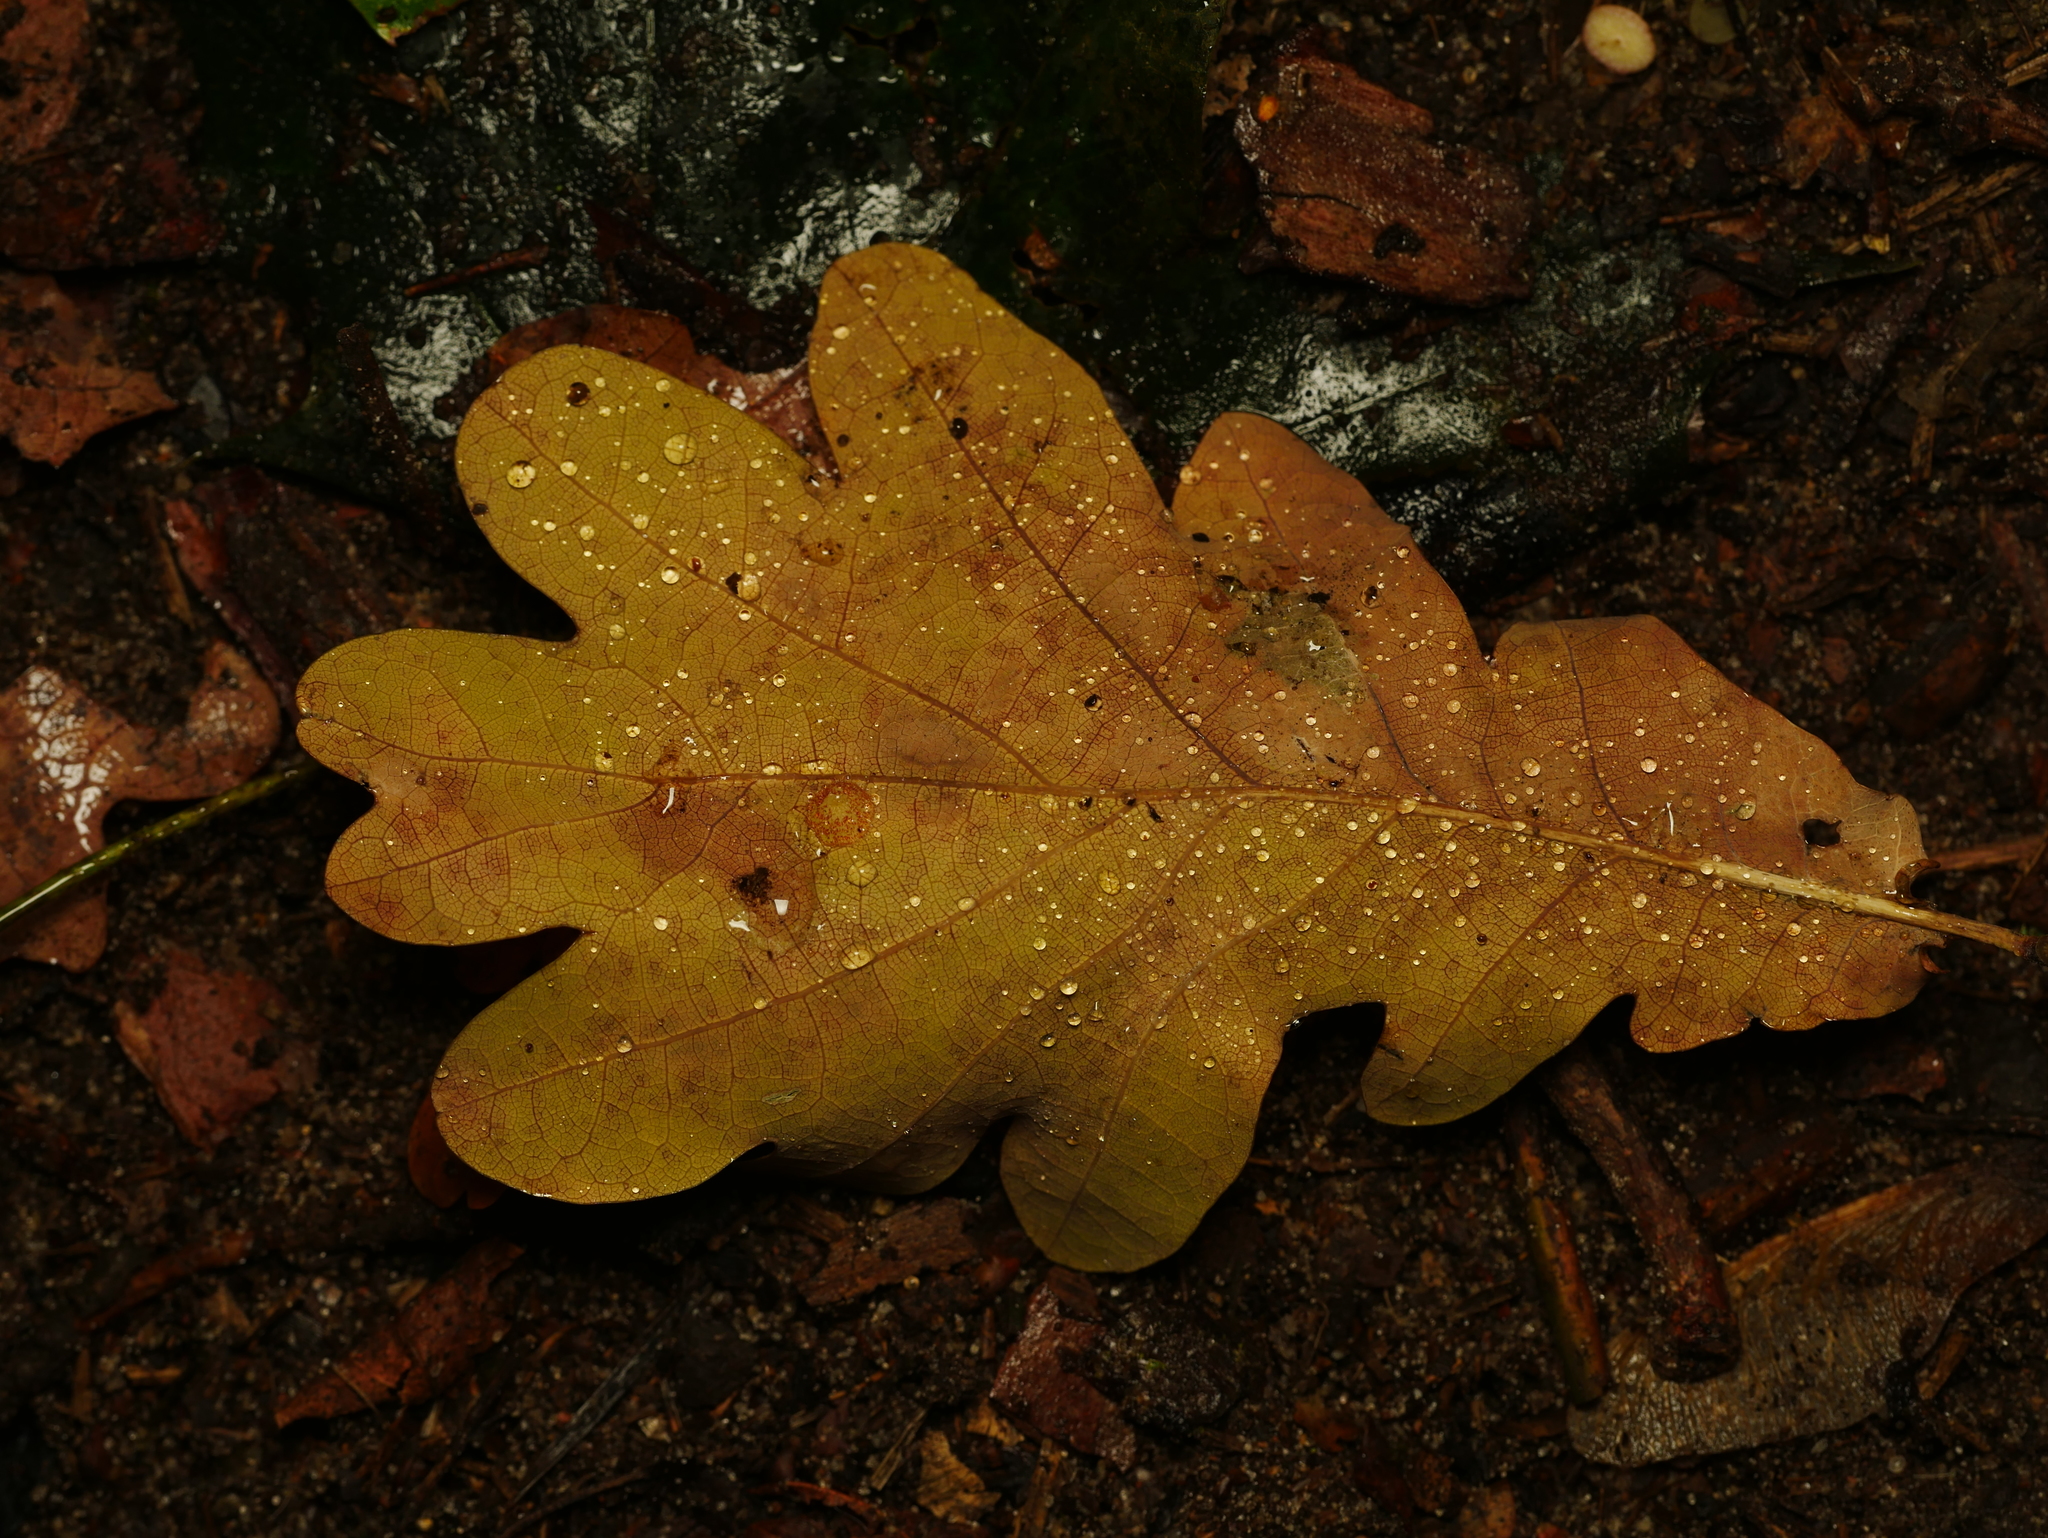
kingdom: Plantae
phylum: Tracheophyta
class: Magnoliopsida
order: Fagales
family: Fagaceae
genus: Quercus
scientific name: Quercus robur
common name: Pedunculate oak
